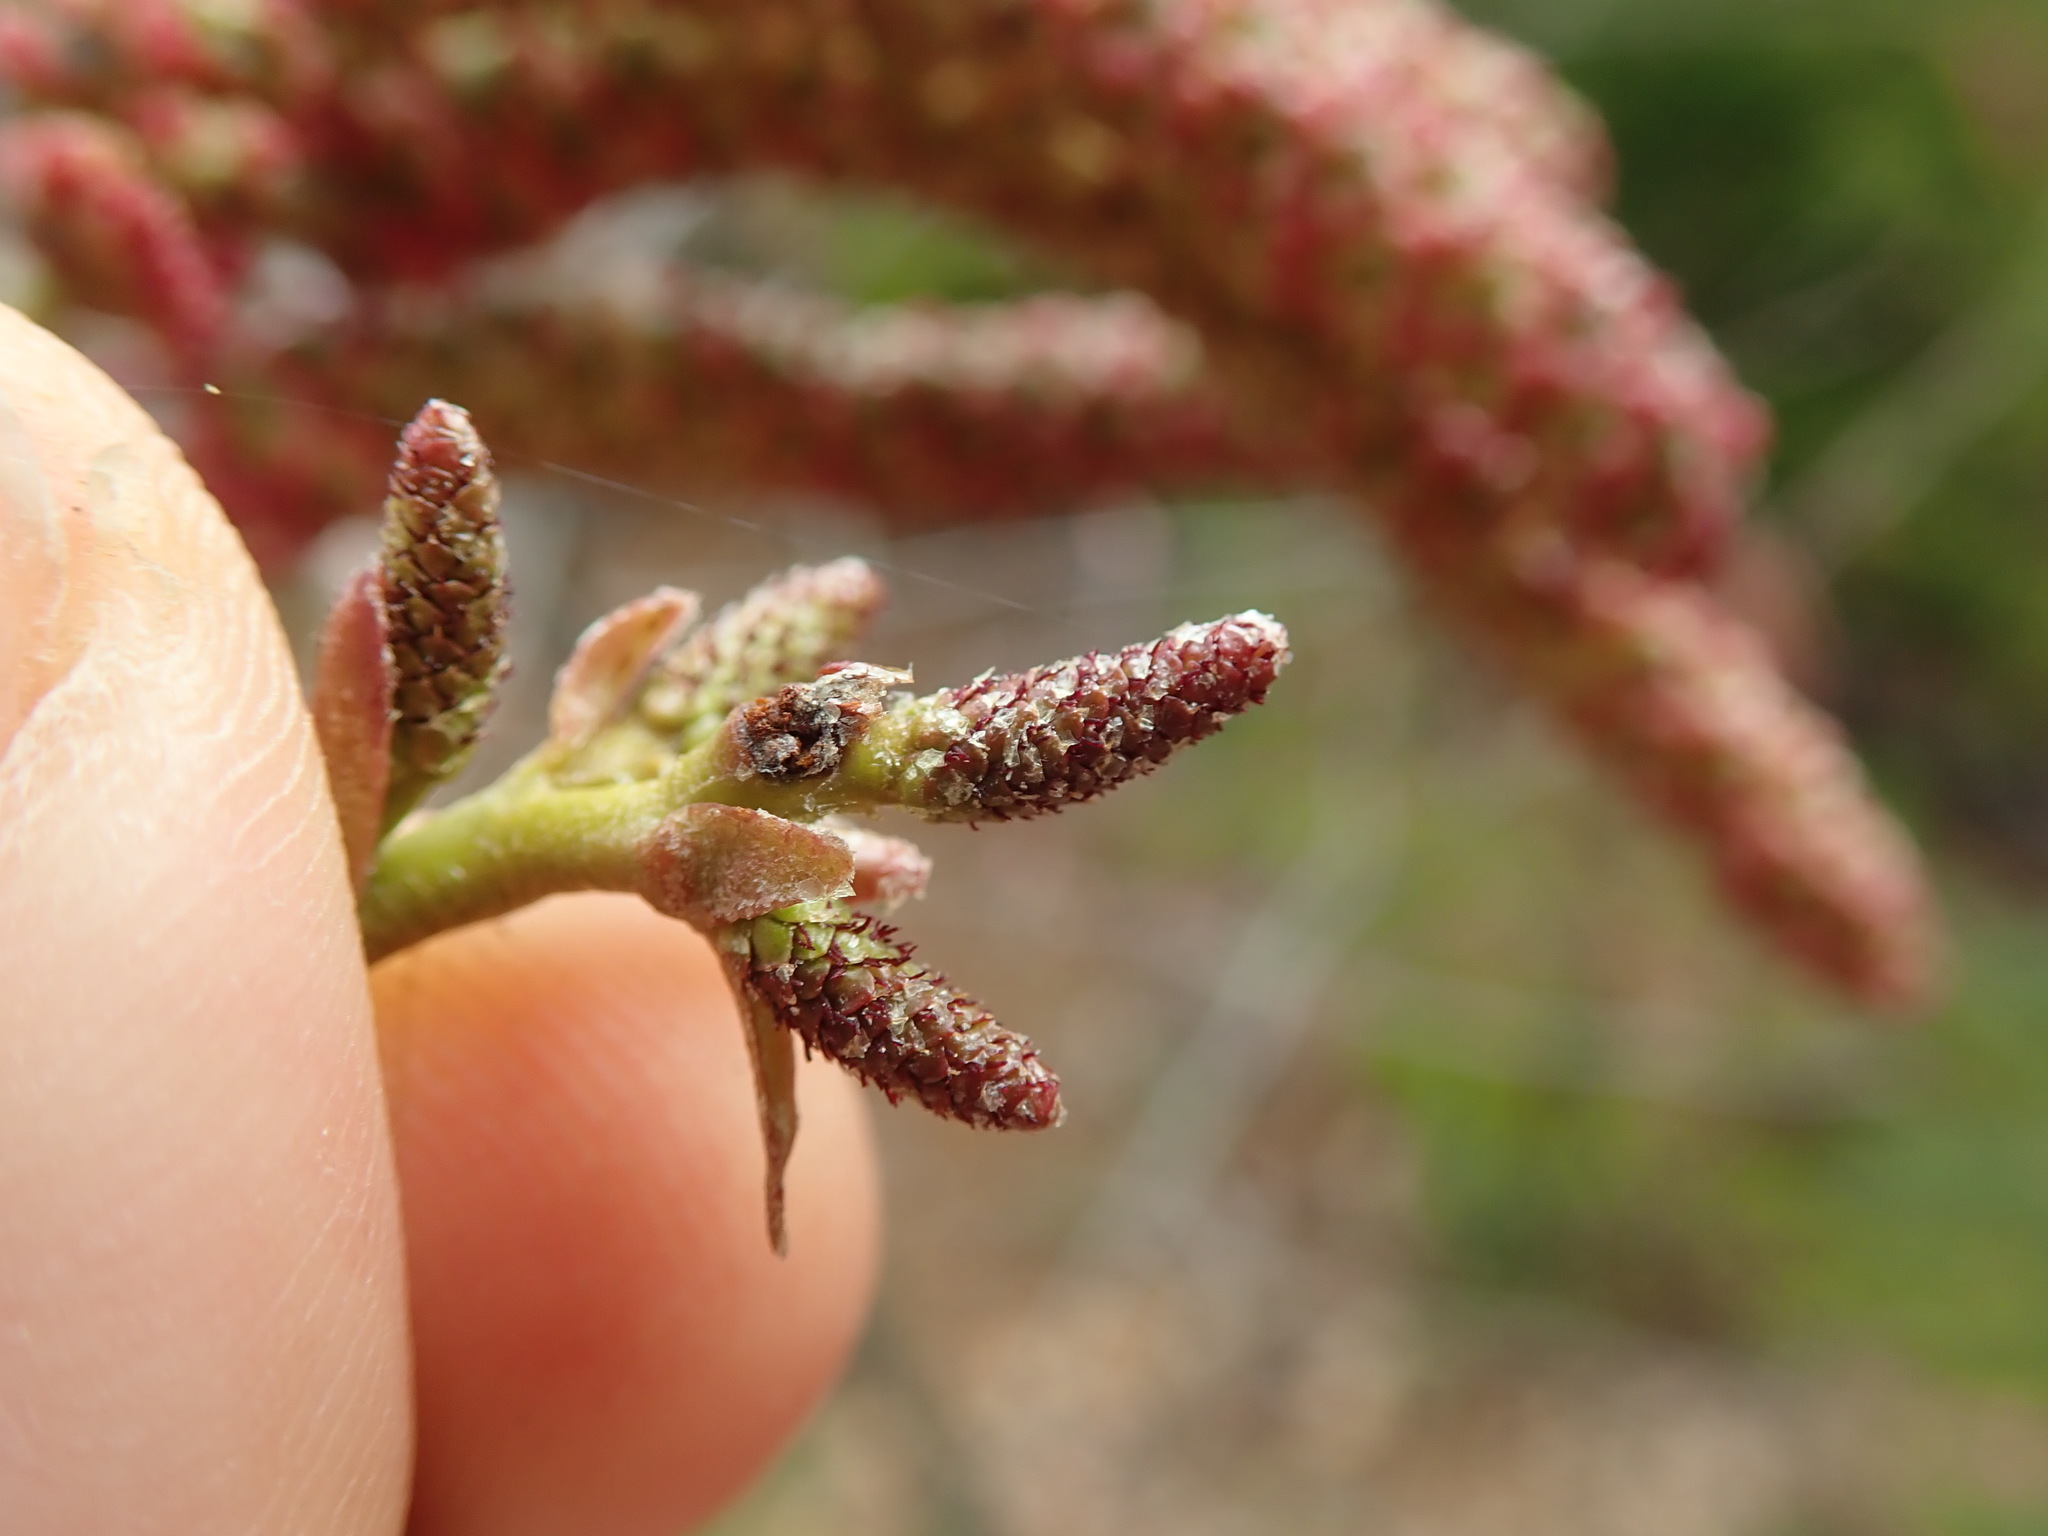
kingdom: Plantae
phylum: Tracheophyta
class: Magnoliopsida
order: Fagales
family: Betulaceae
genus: Alnus
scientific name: Alnus rubra
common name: Red alder
